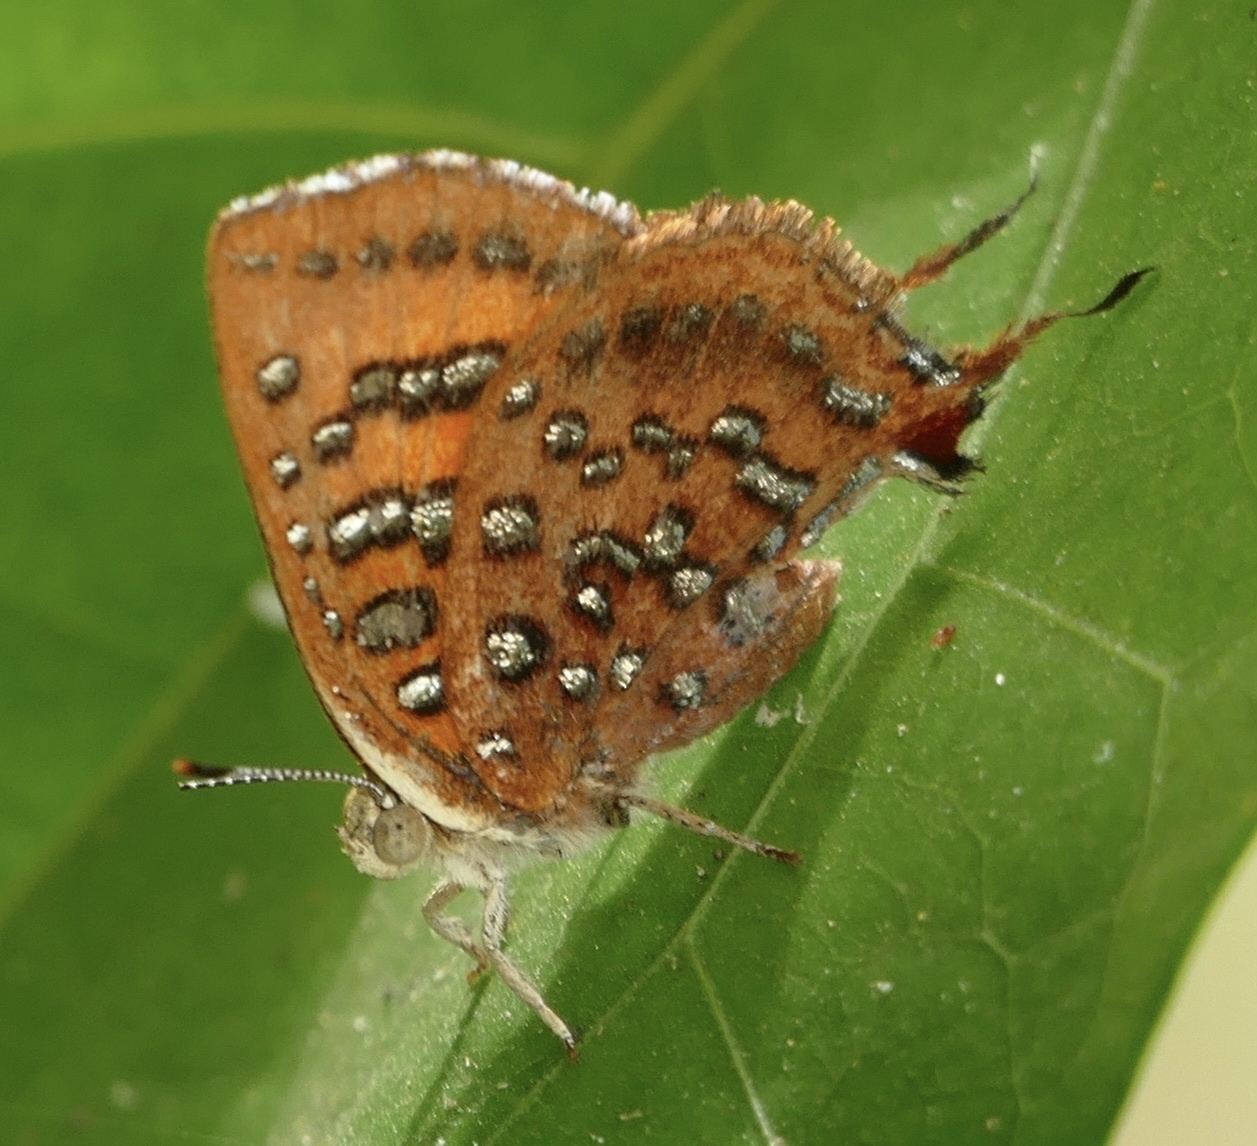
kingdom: Animalia
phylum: Arthropoda
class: Insecta
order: Lepidoptera
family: Lycaenidae
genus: Axiocerses
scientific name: Axiocerses harpax
